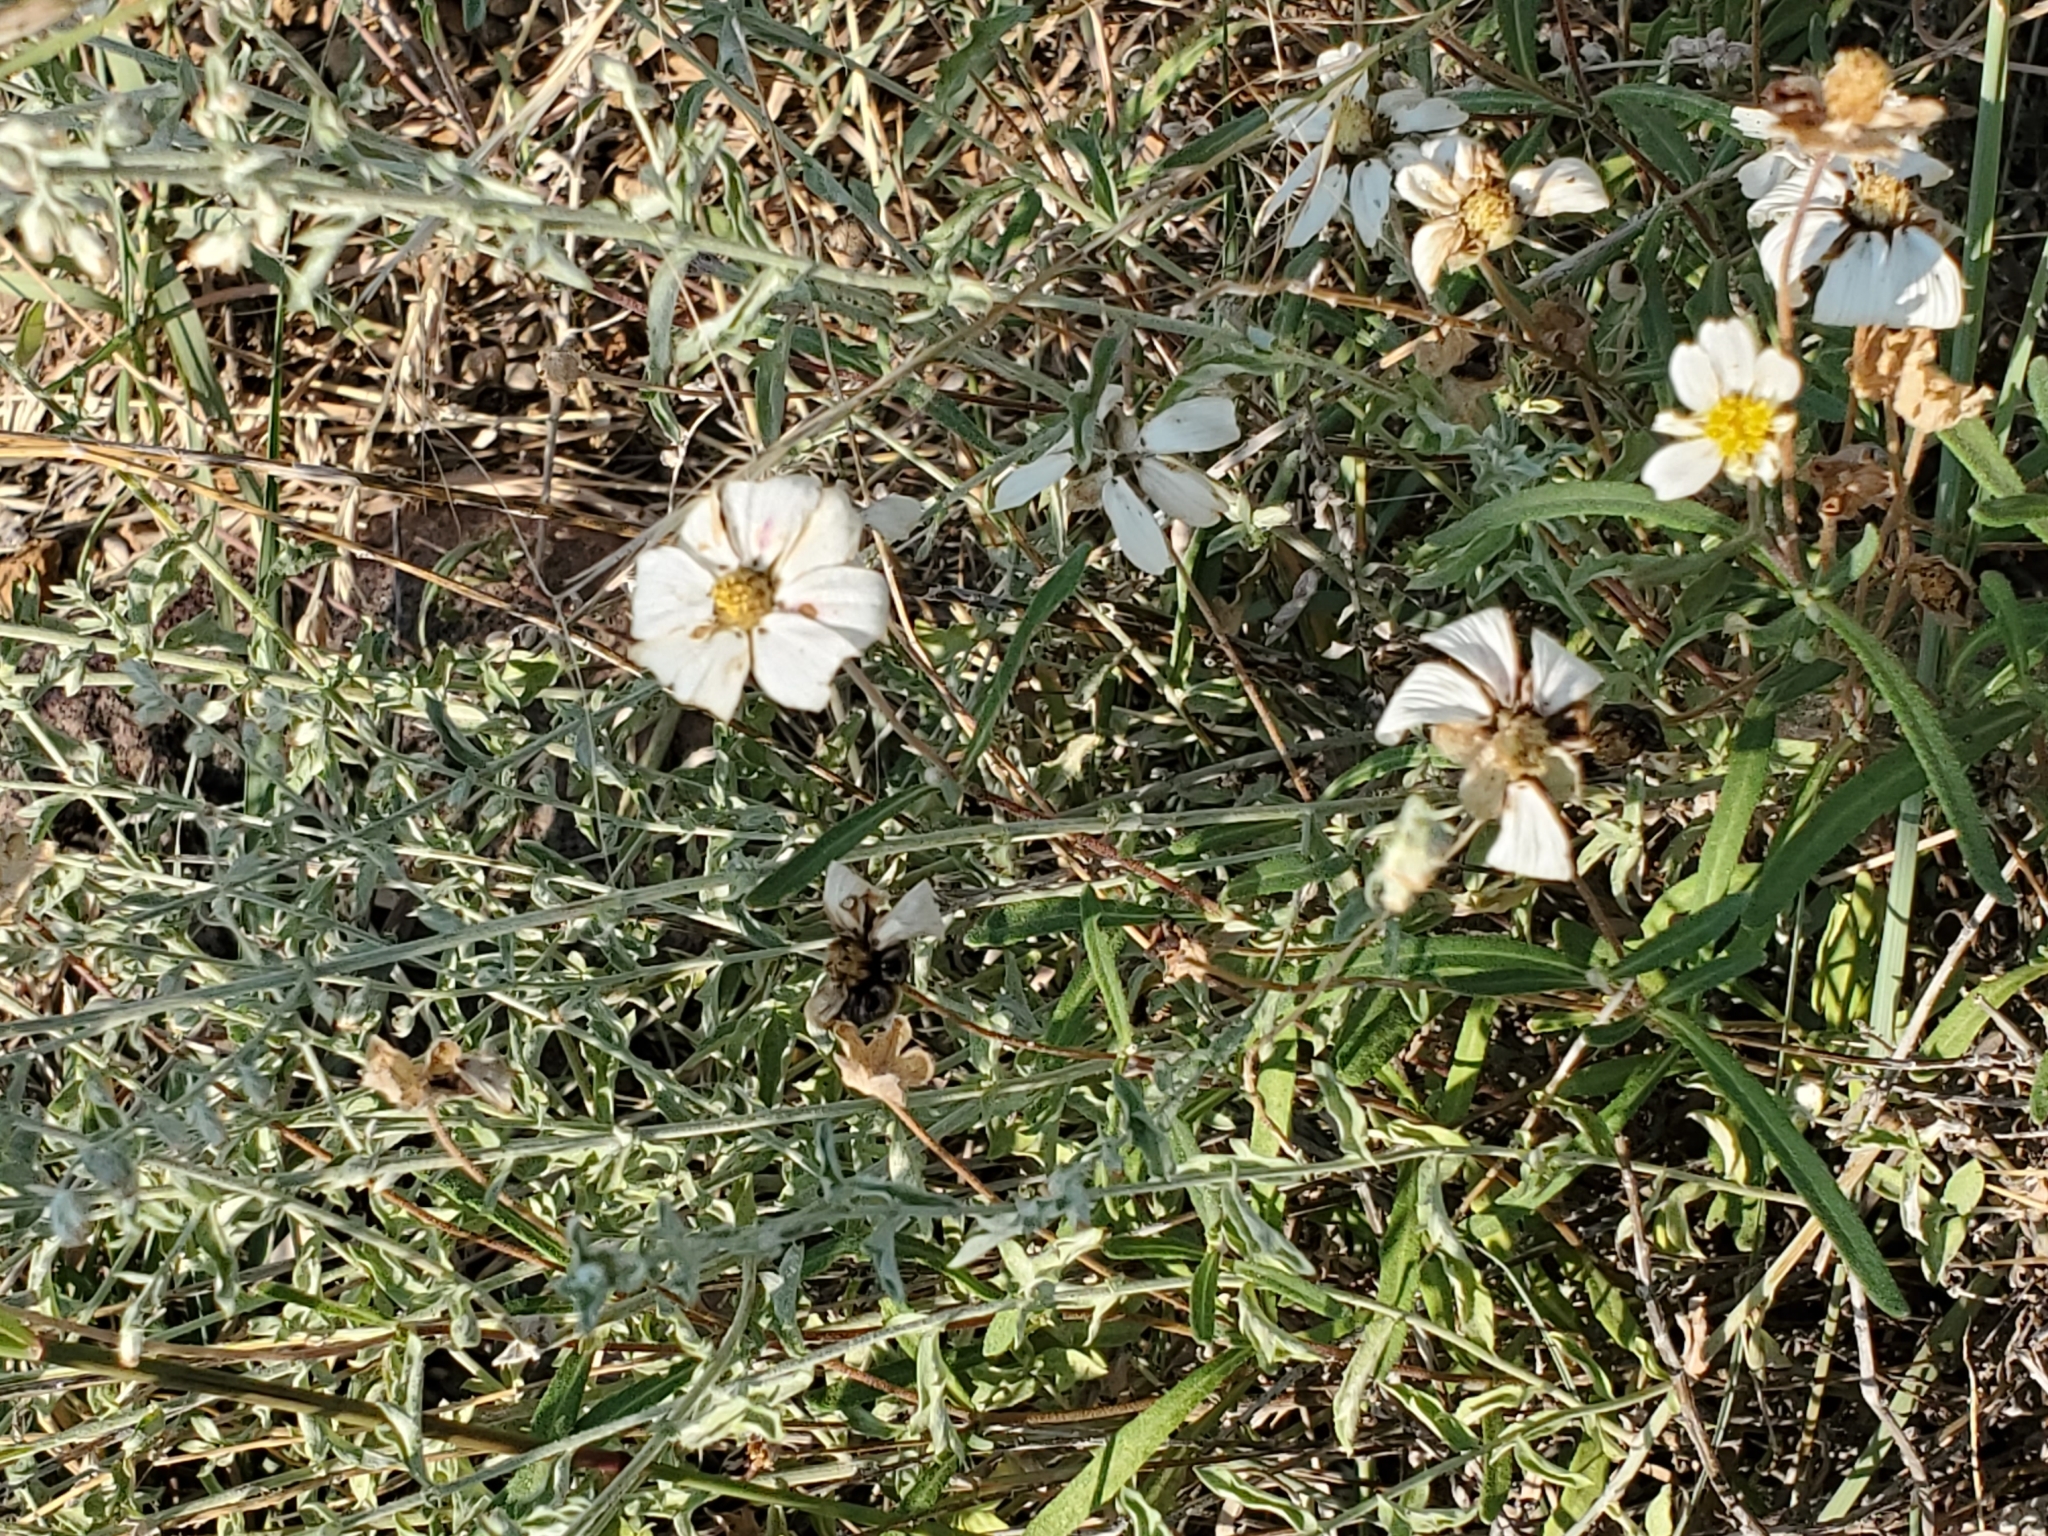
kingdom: Plantae
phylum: Tracheophyta
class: Magnoliopsida
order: Asterales
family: Asteraceae
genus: Melampodium
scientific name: Melampodium leucanthum
